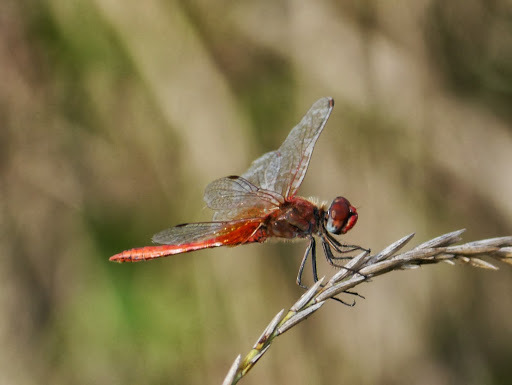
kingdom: Animalia
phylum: Arthropoda
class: Insecta
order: Odonata
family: Libellulidae
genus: Sympetrum
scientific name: Sympetrum fonscolombii
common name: Red-veined darter
